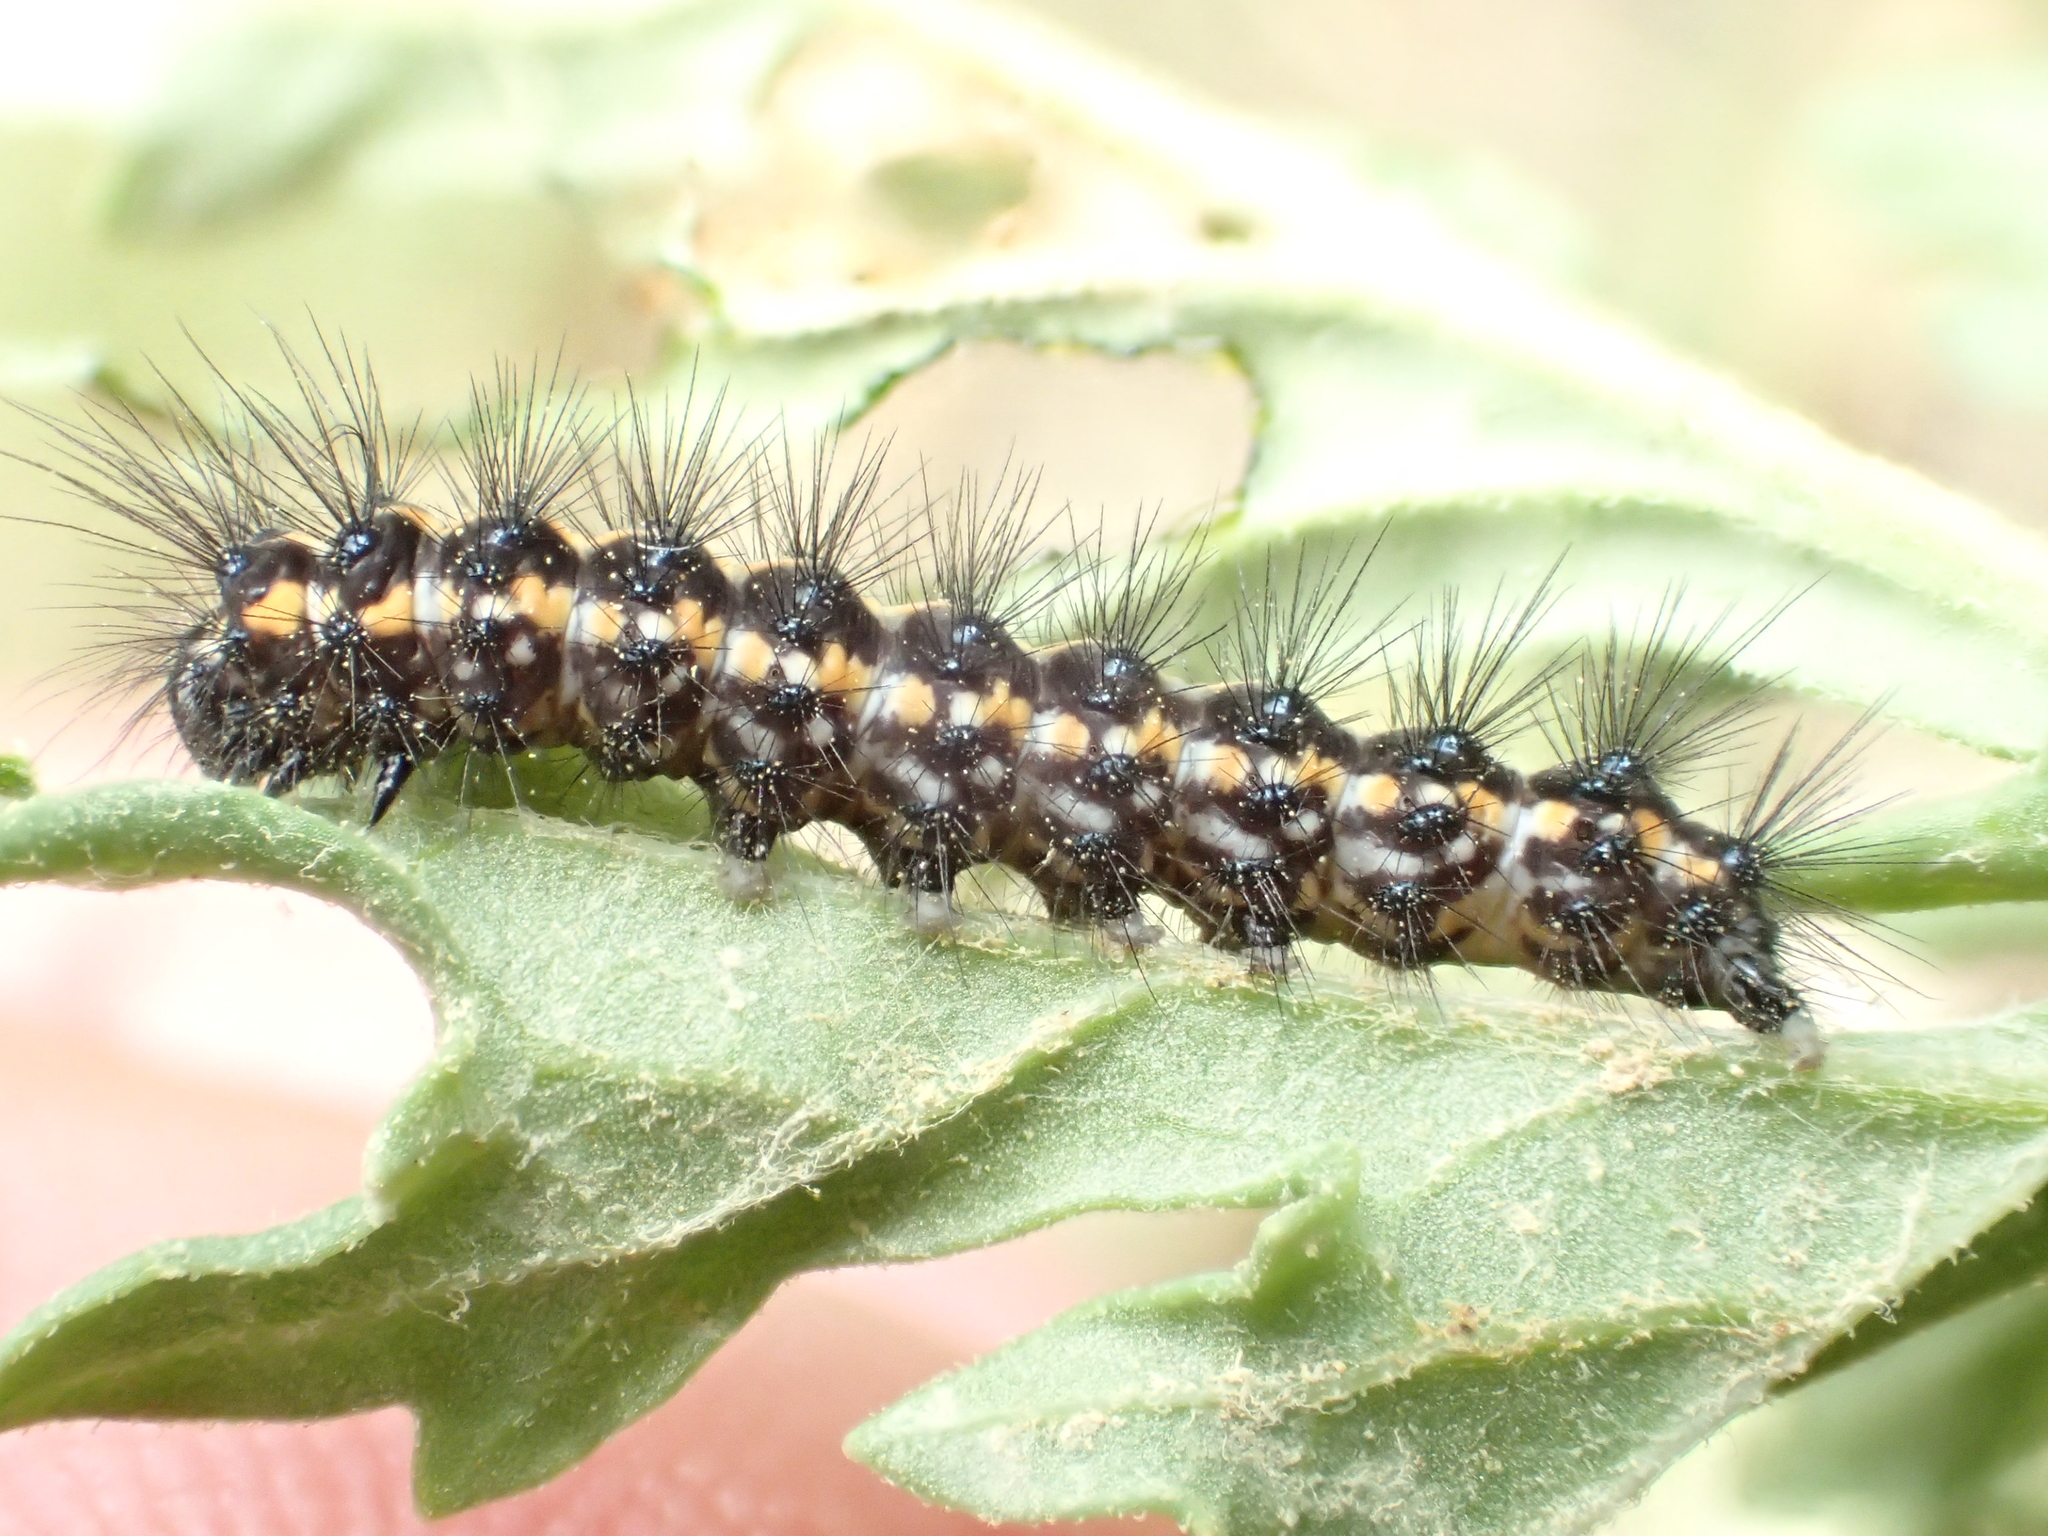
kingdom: Animalia
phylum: Arthropoda
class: Insecta
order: Lepidoptera
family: Erebidae
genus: Nyctemera
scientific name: Nyctemera annulatum
